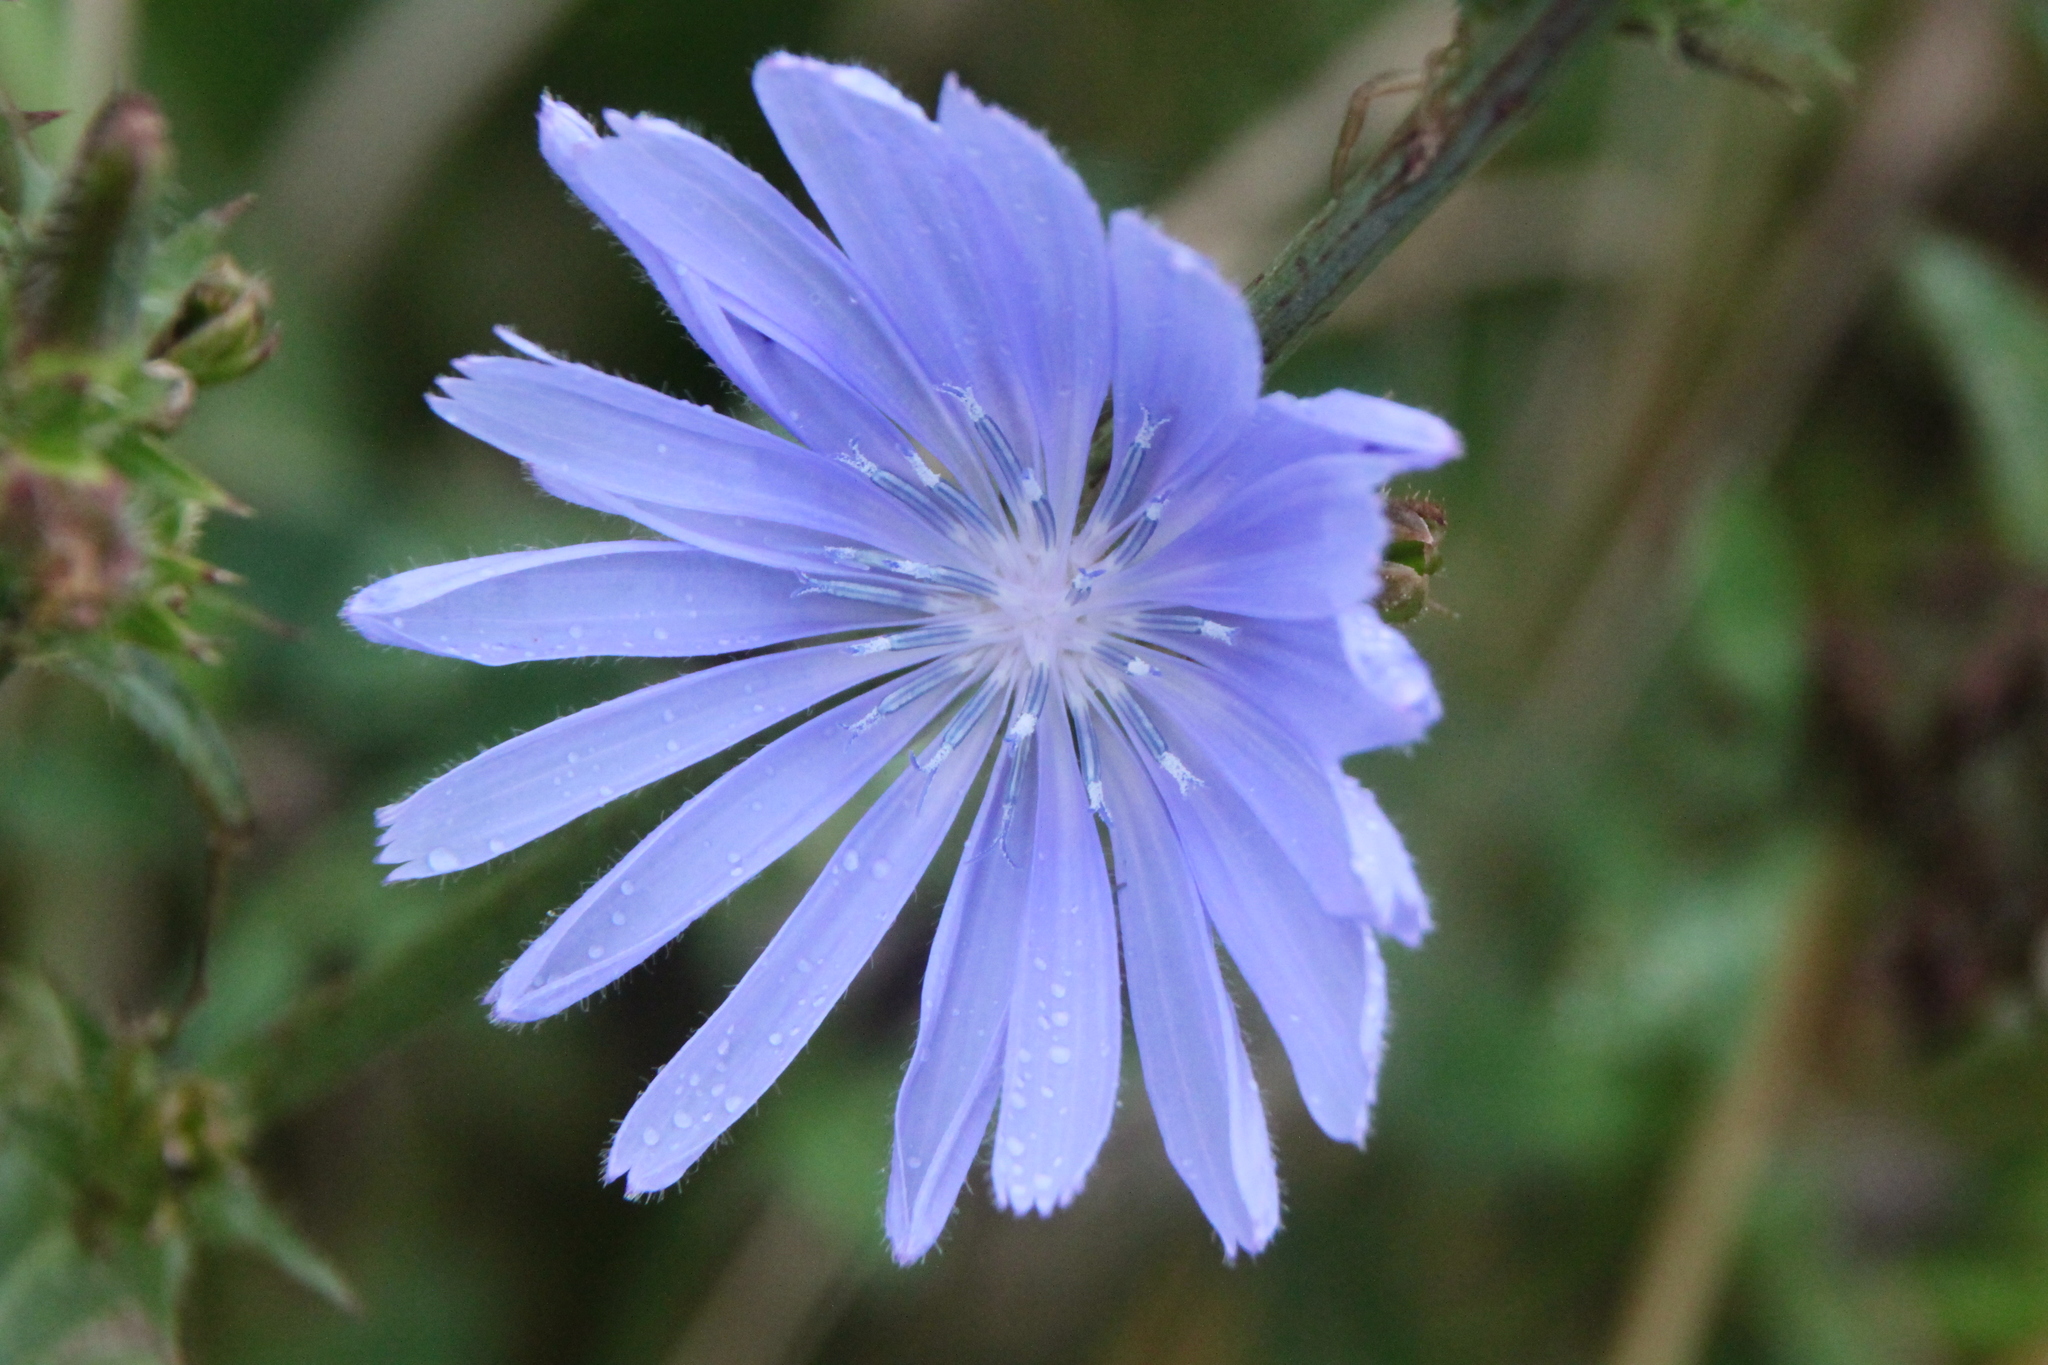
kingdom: Plantae
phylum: Tracheophyta
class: Magnoliopsida
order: Asterales
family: Asteraceae
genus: Cichorium
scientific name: Cichorium intybus
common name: Chicory
